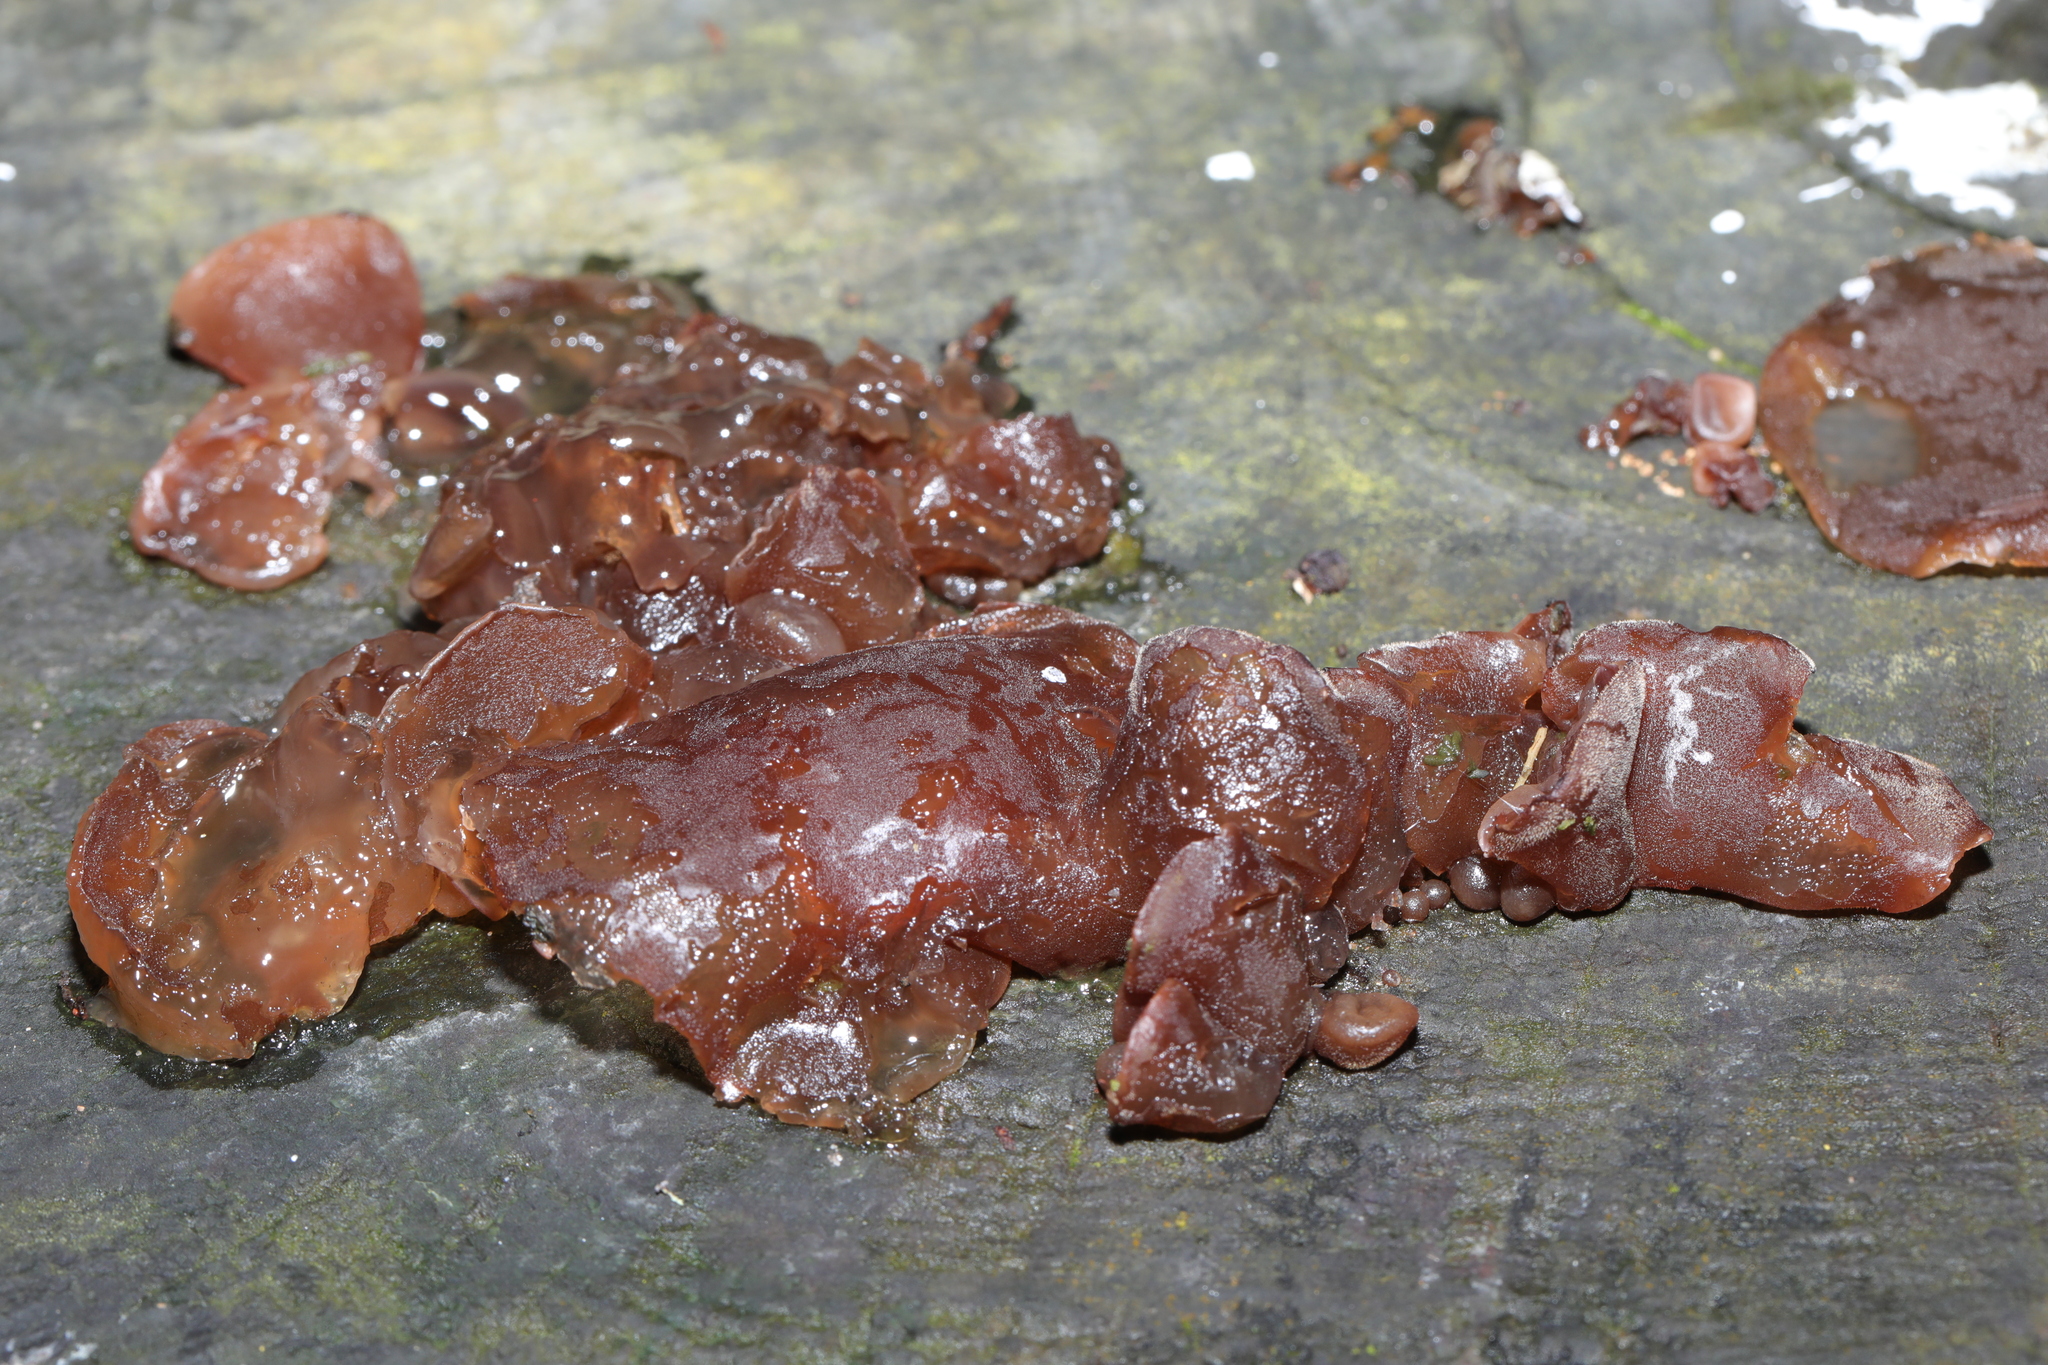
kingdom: Fungi
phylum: Basidiomycota
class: Agaricomycetes
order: Auriculariales
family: Auriculariaceae
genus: Auricularia
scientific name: Auricularia auricula-judae
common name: Jelly ear
